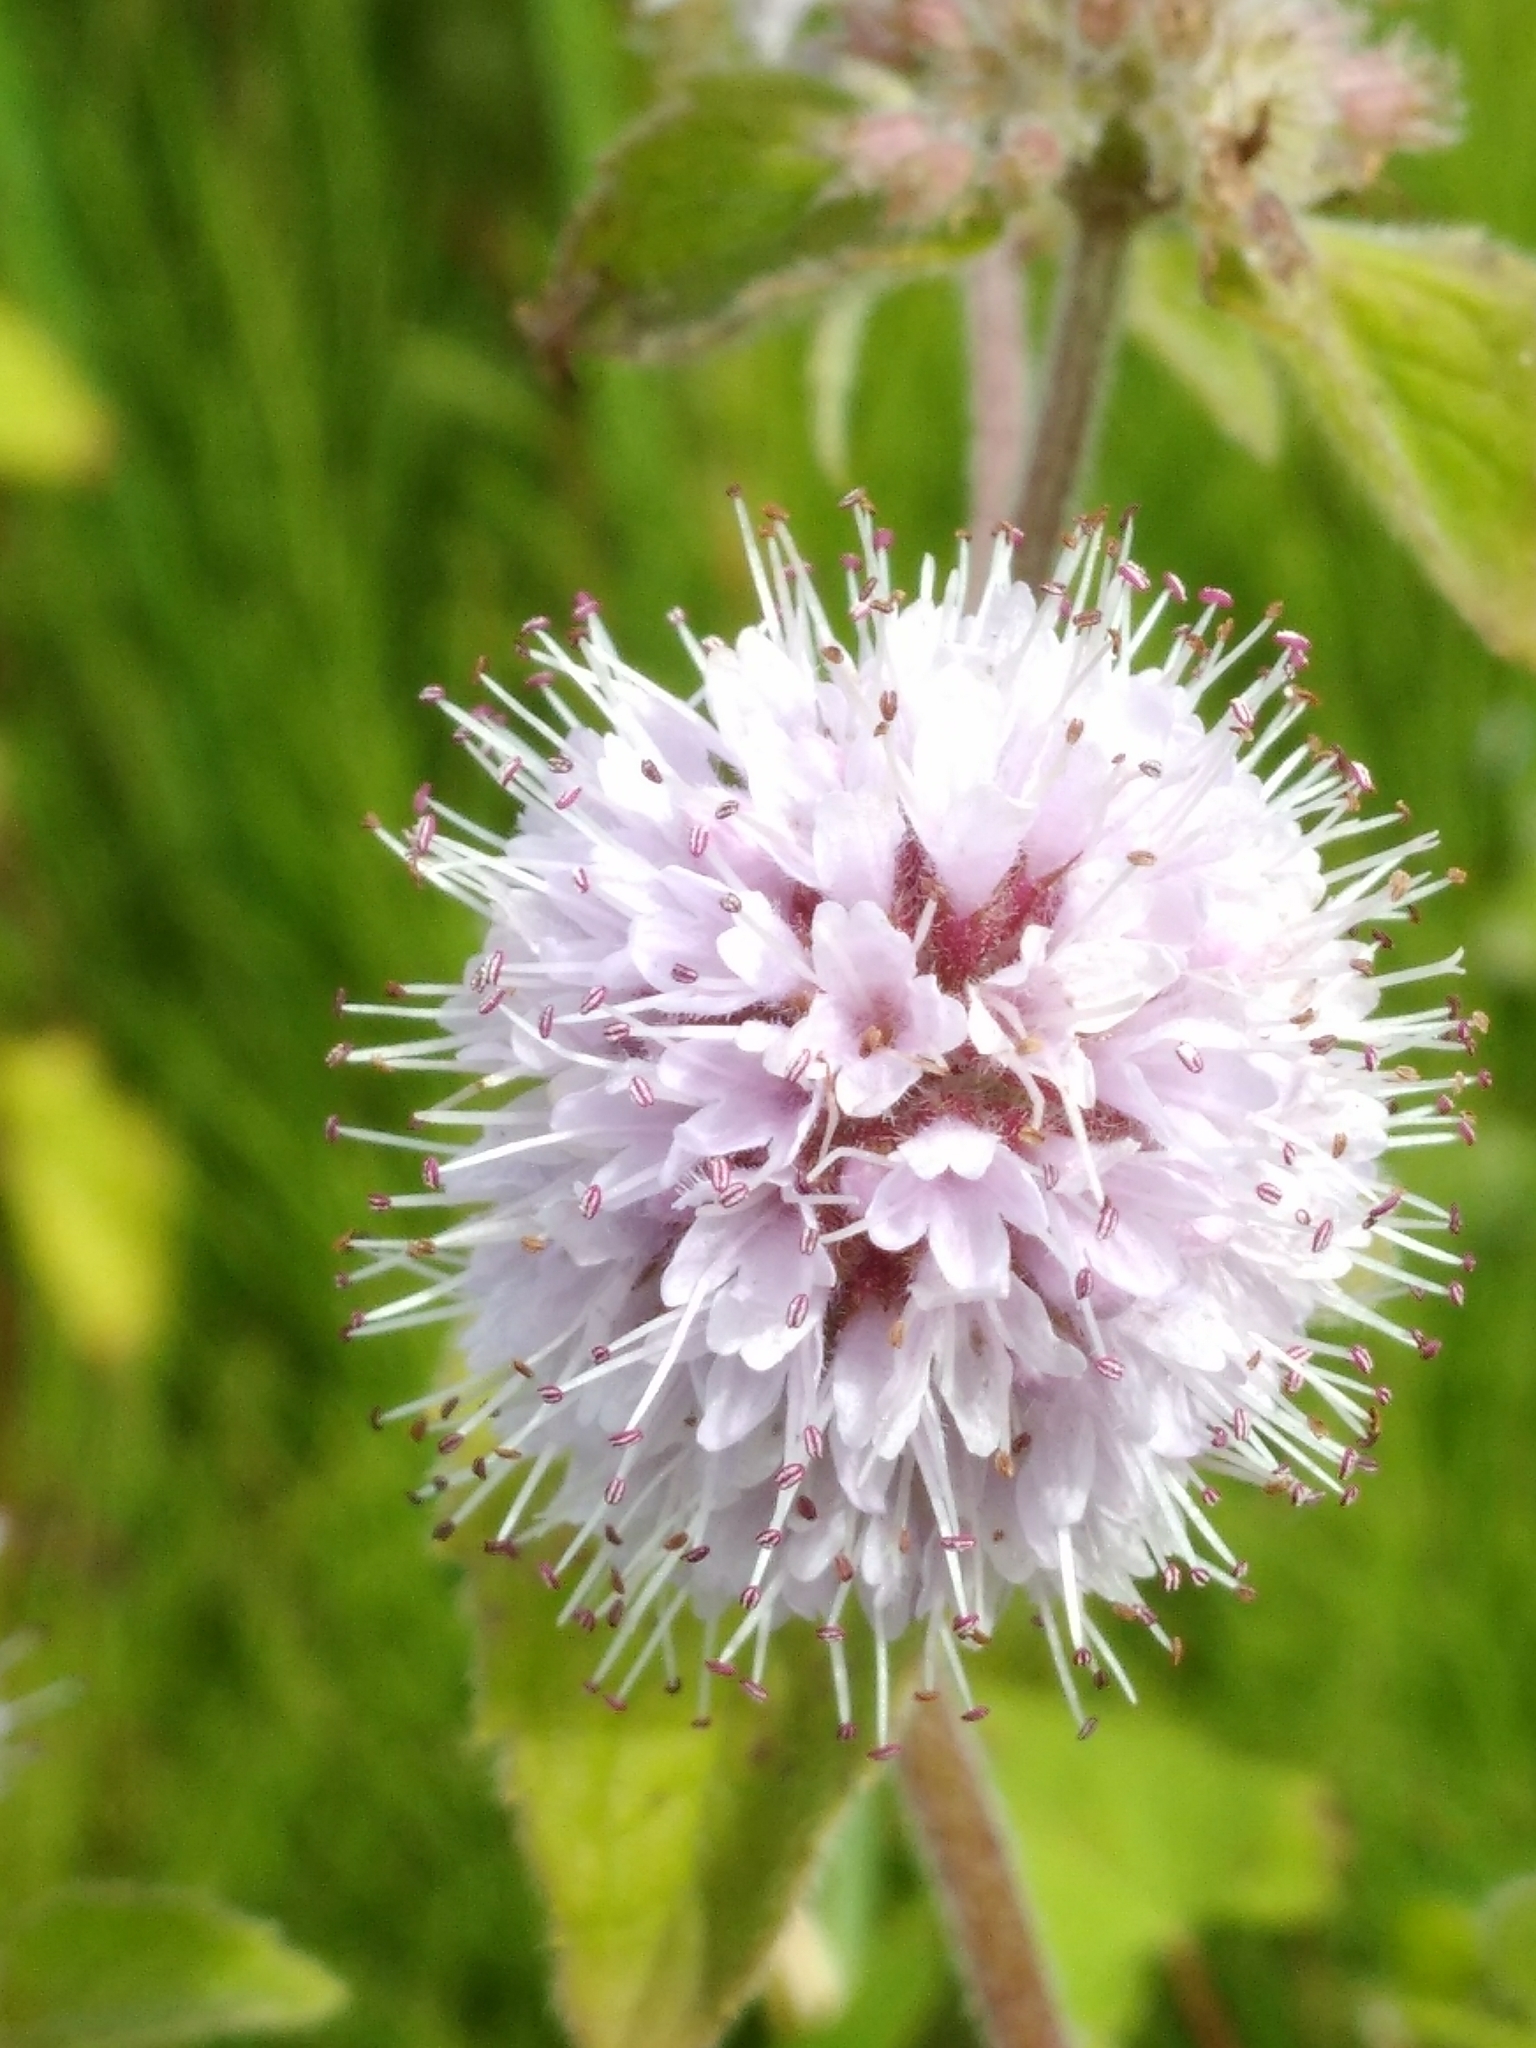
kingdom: Plantae
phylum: Tracheophyta
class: Magnoliopsida
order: Lamiales
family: Lamiaceae
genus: Mentha
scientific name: Mentha aquatica
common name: Water mint
